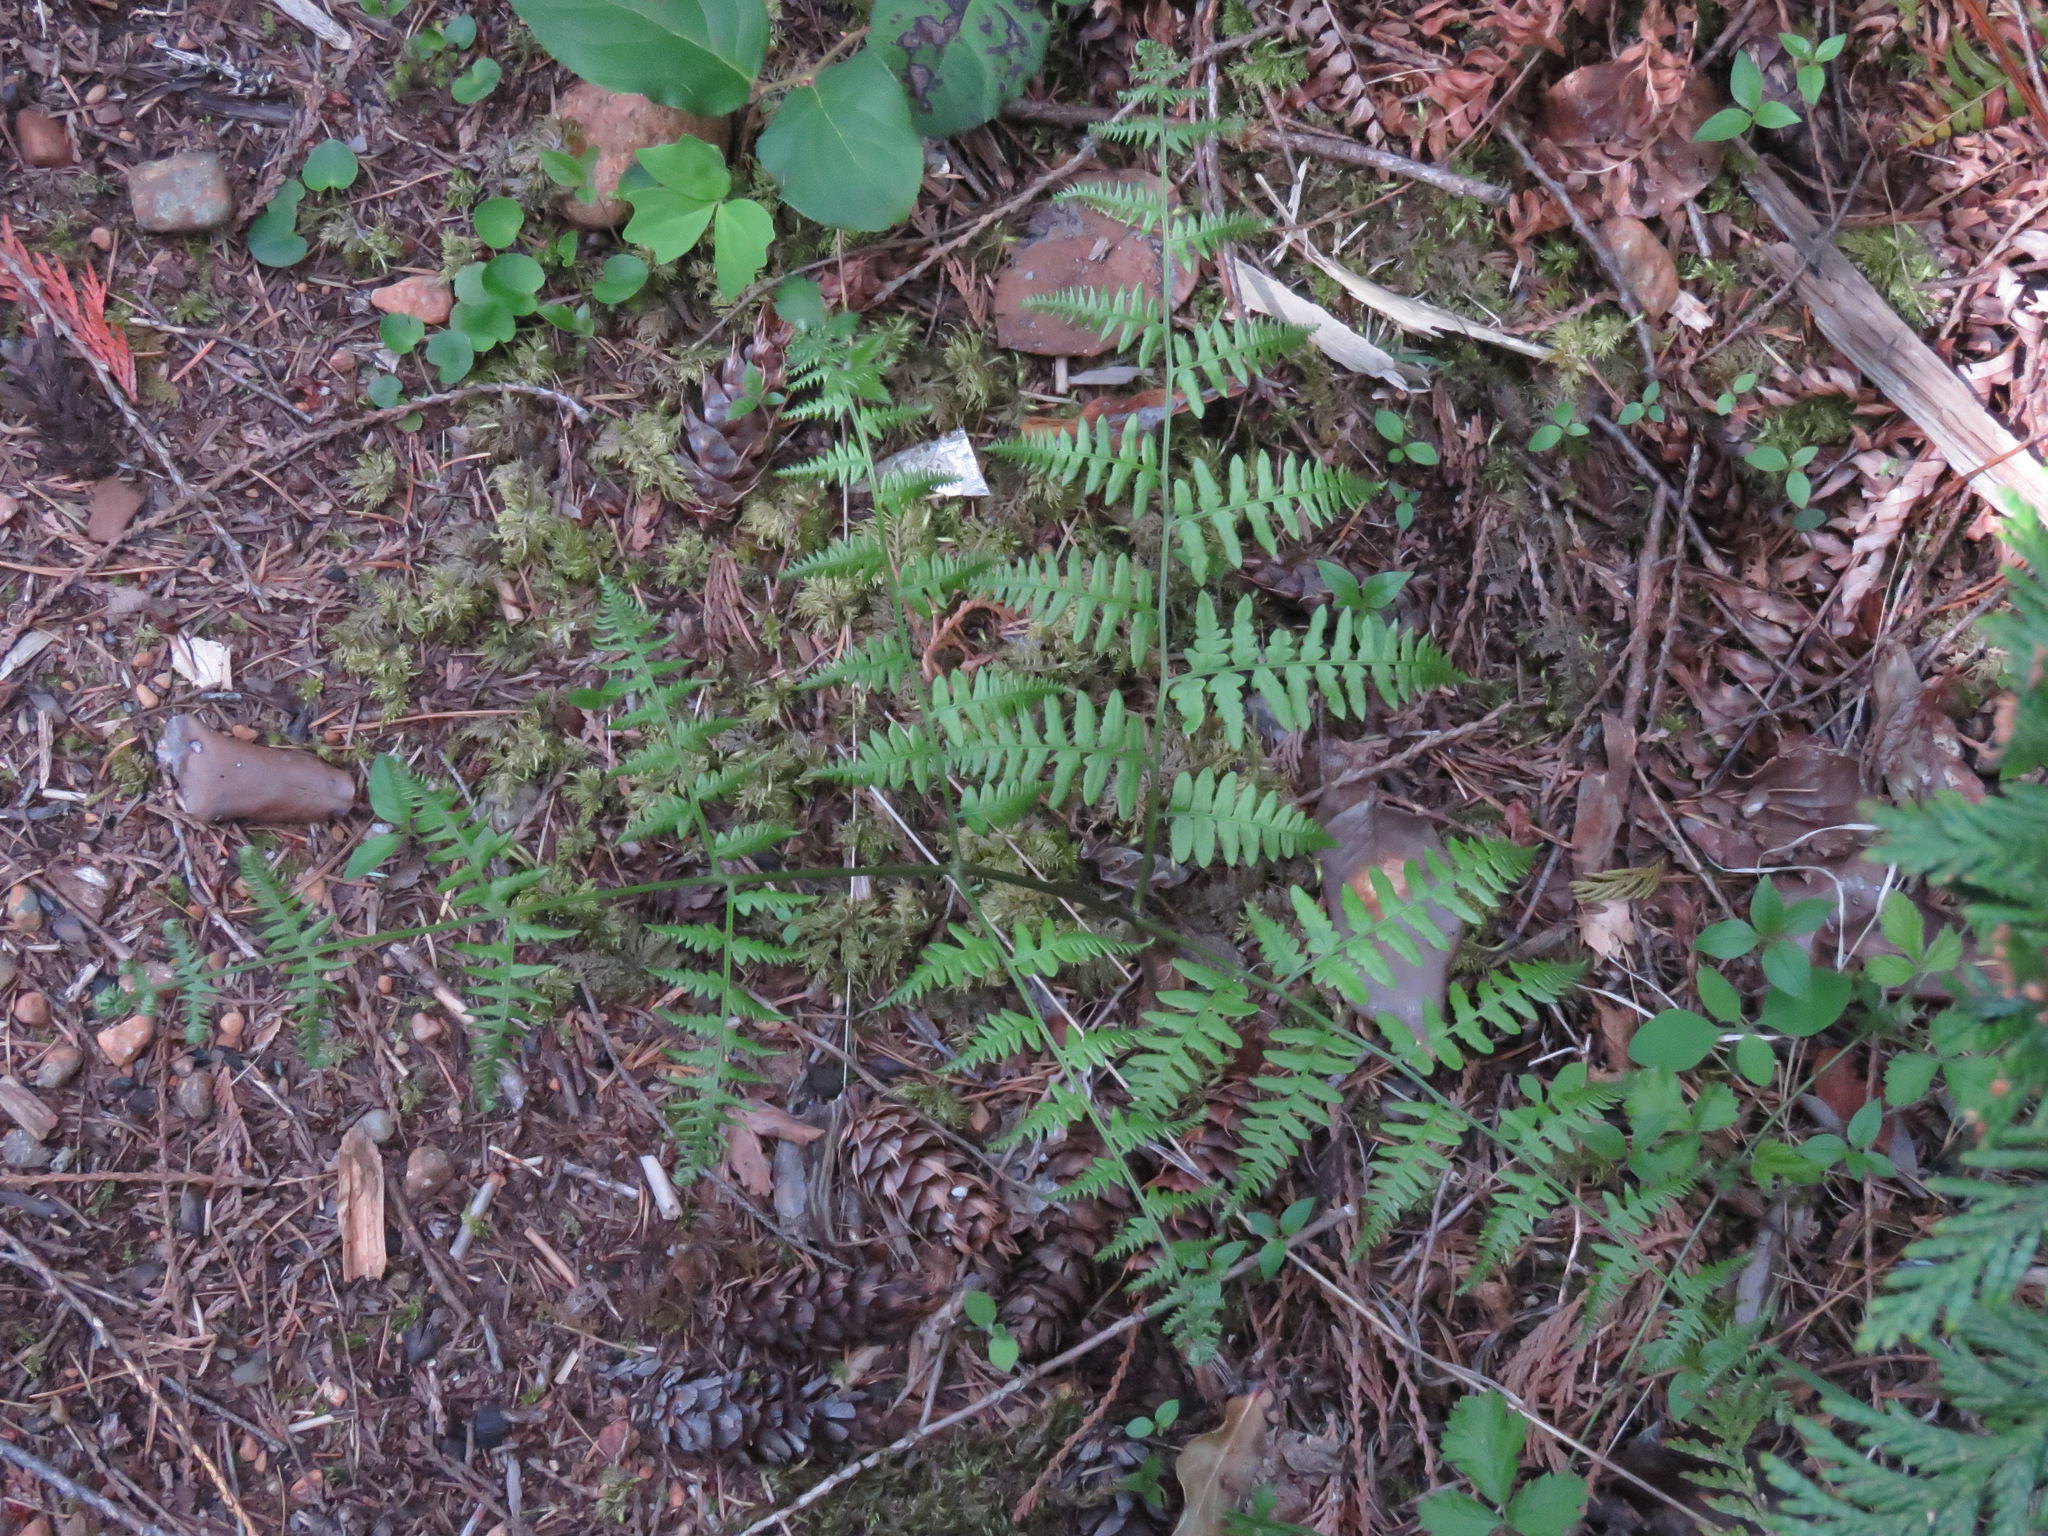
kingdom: Plantae
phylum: Tracheophyta
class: Polypodiopsida
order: Polypodiales
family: Dennstaedtiaceae
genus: Pteridium
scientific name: Pteridium aquilinum
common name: Bracken
